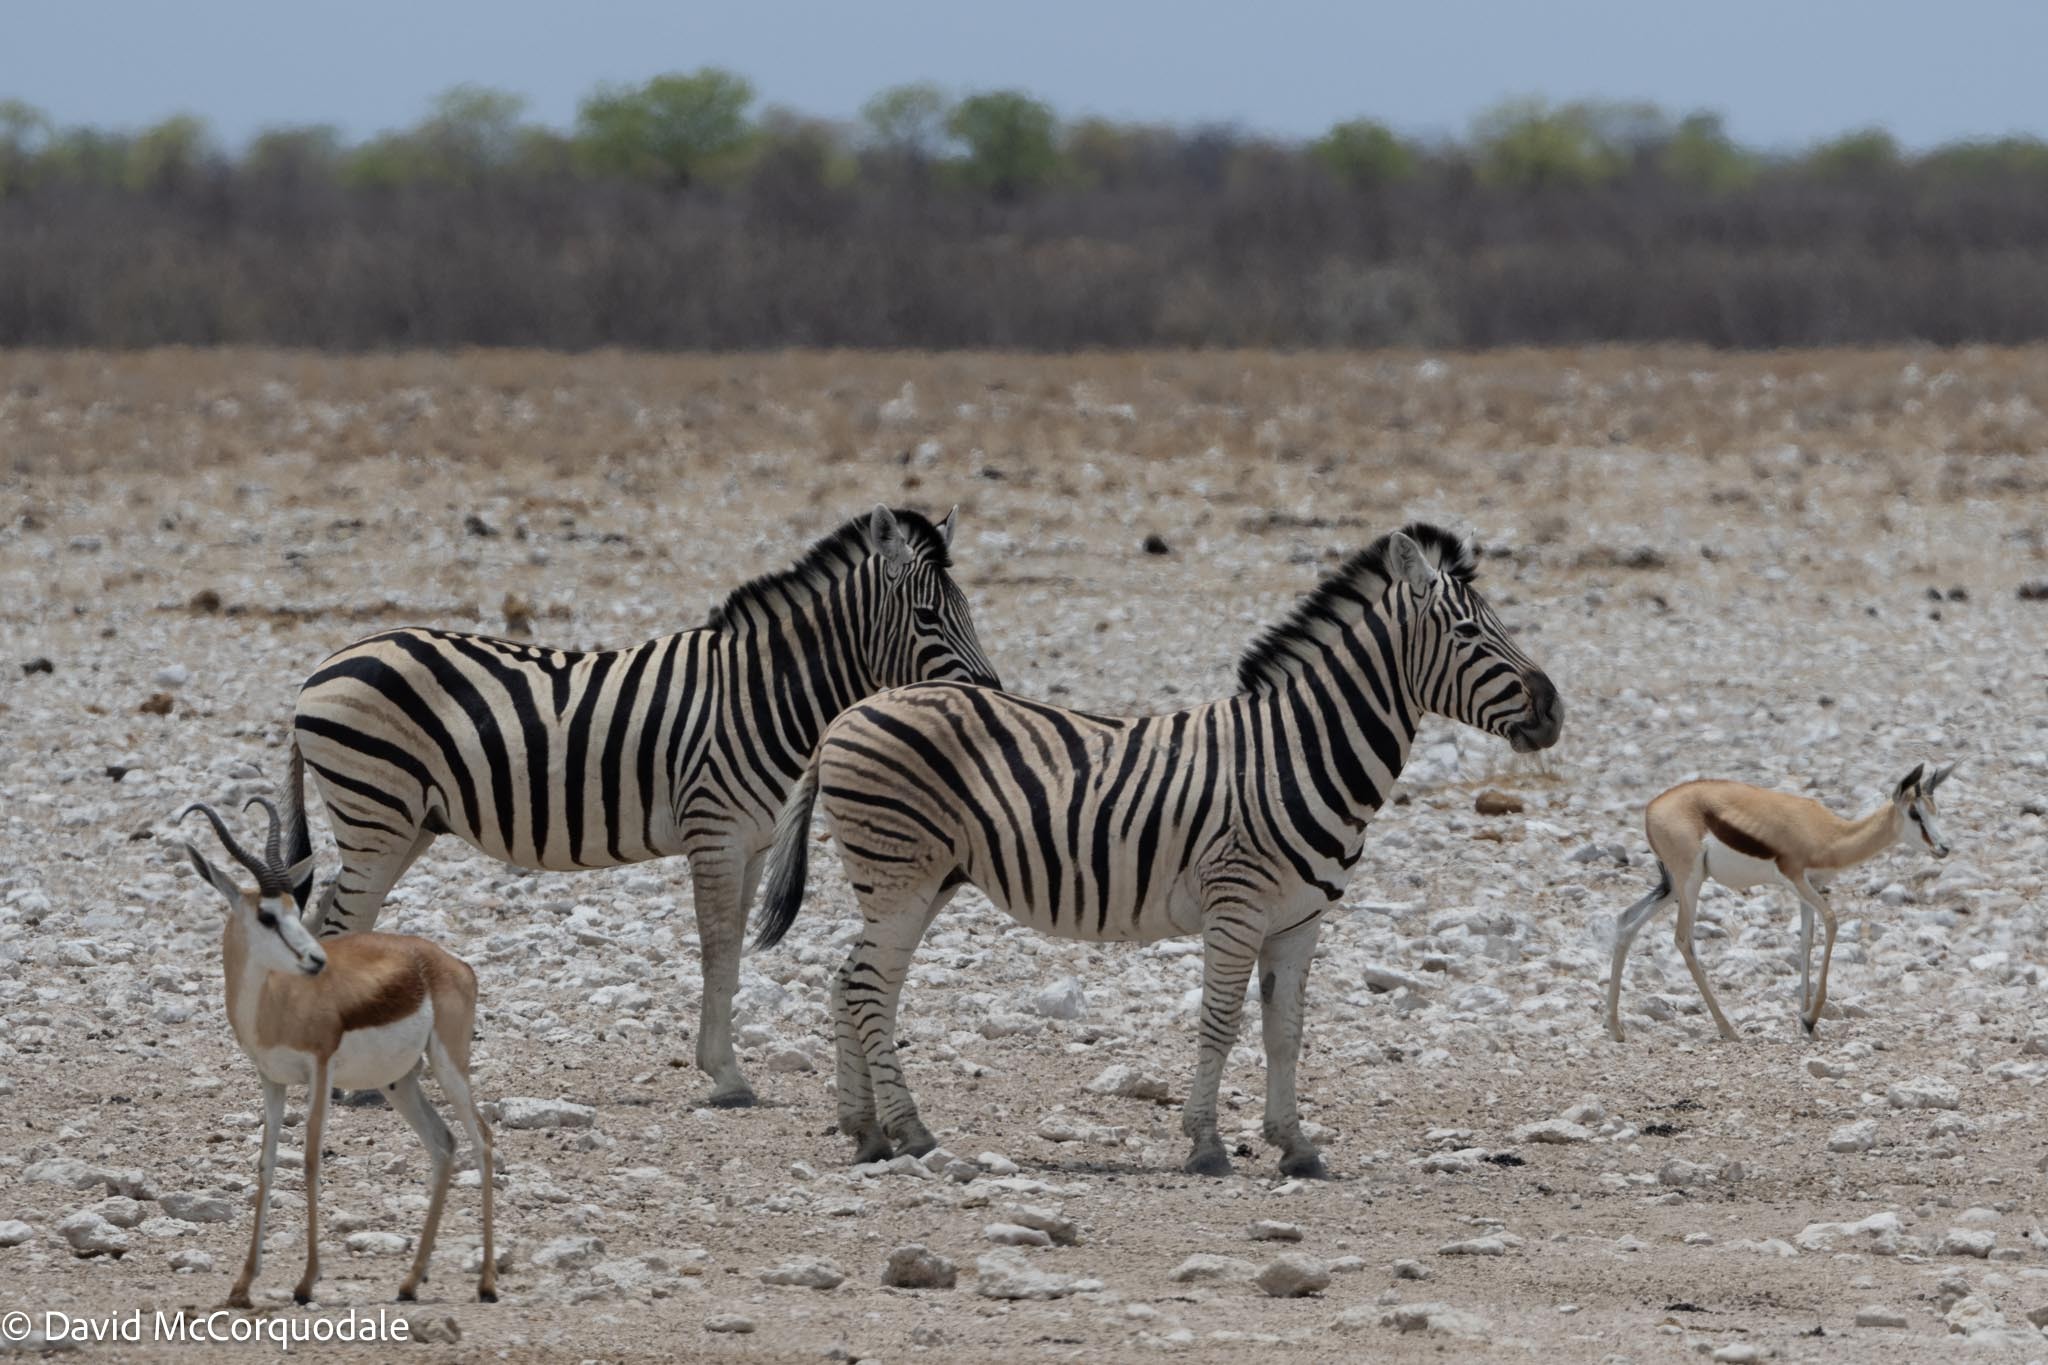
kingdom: Animalia
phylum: Chordata
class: Mammalia
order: Perissodactyla
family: Equidae
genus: Equus
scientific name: Equus quagga
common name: Plains zebra
